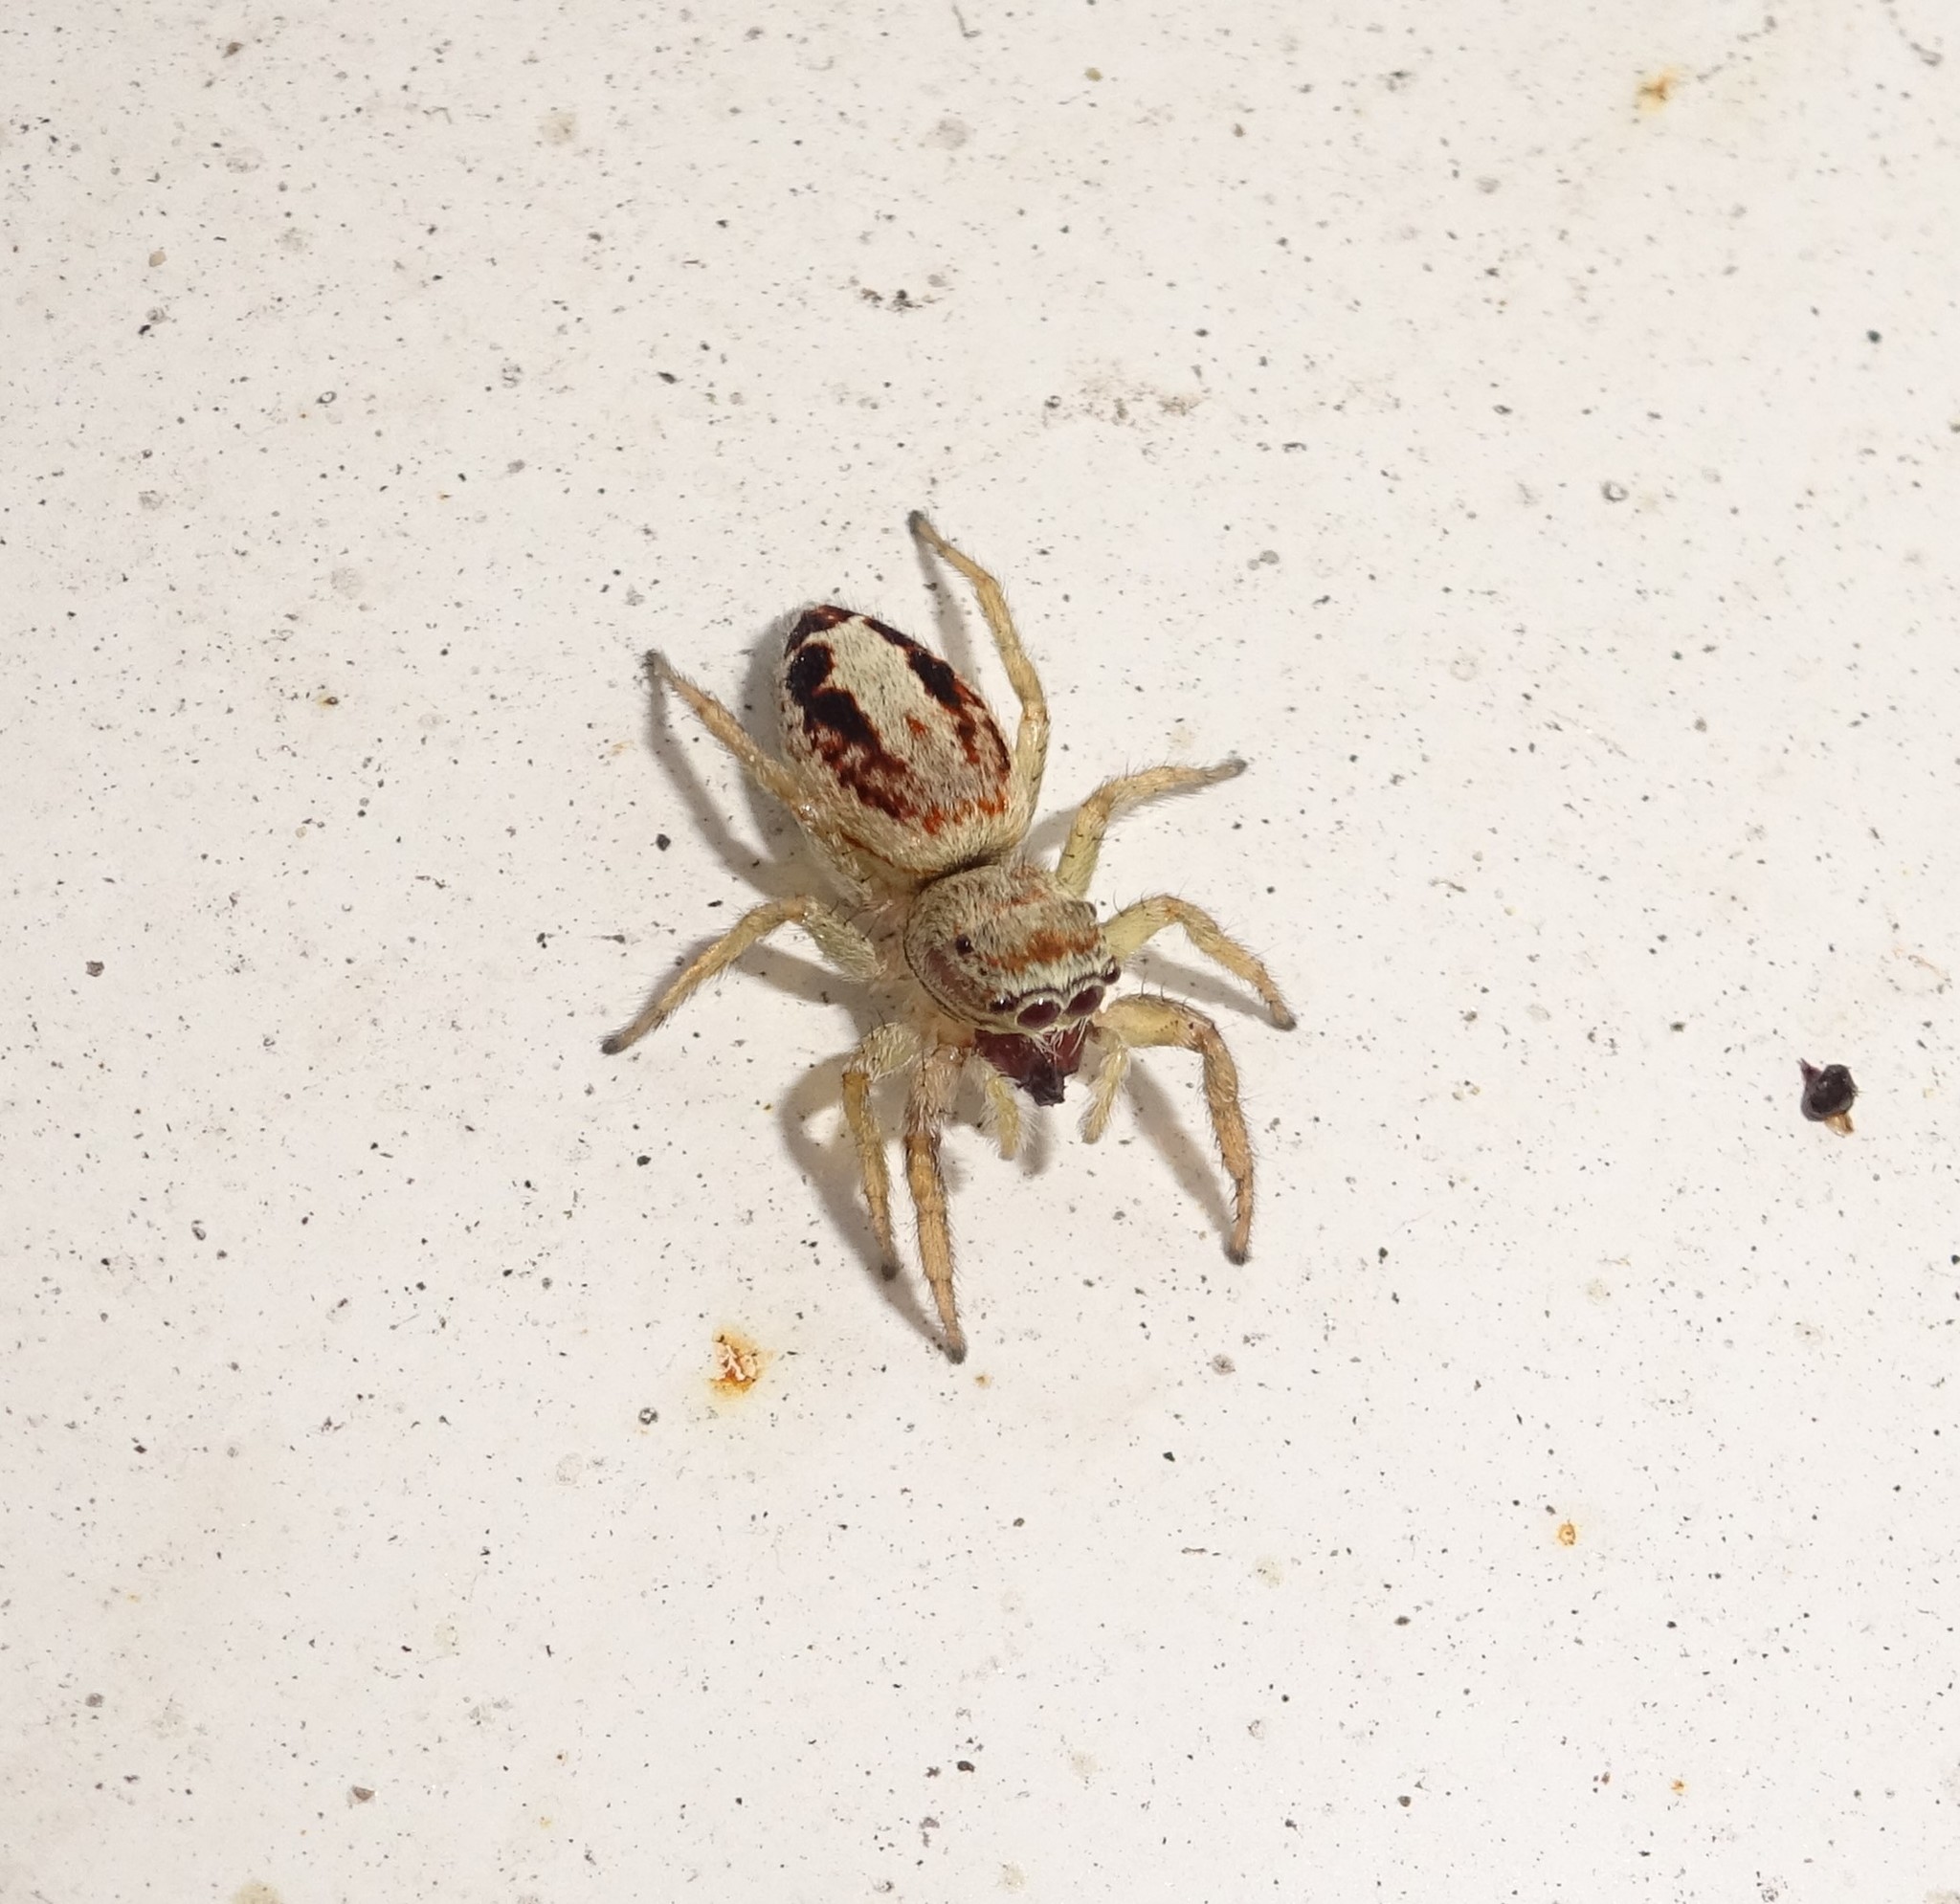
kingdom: Animalia
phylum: Arthropoda
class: Arachnida
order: Araneae
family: Salticidae
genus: Icius
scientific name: Icius
